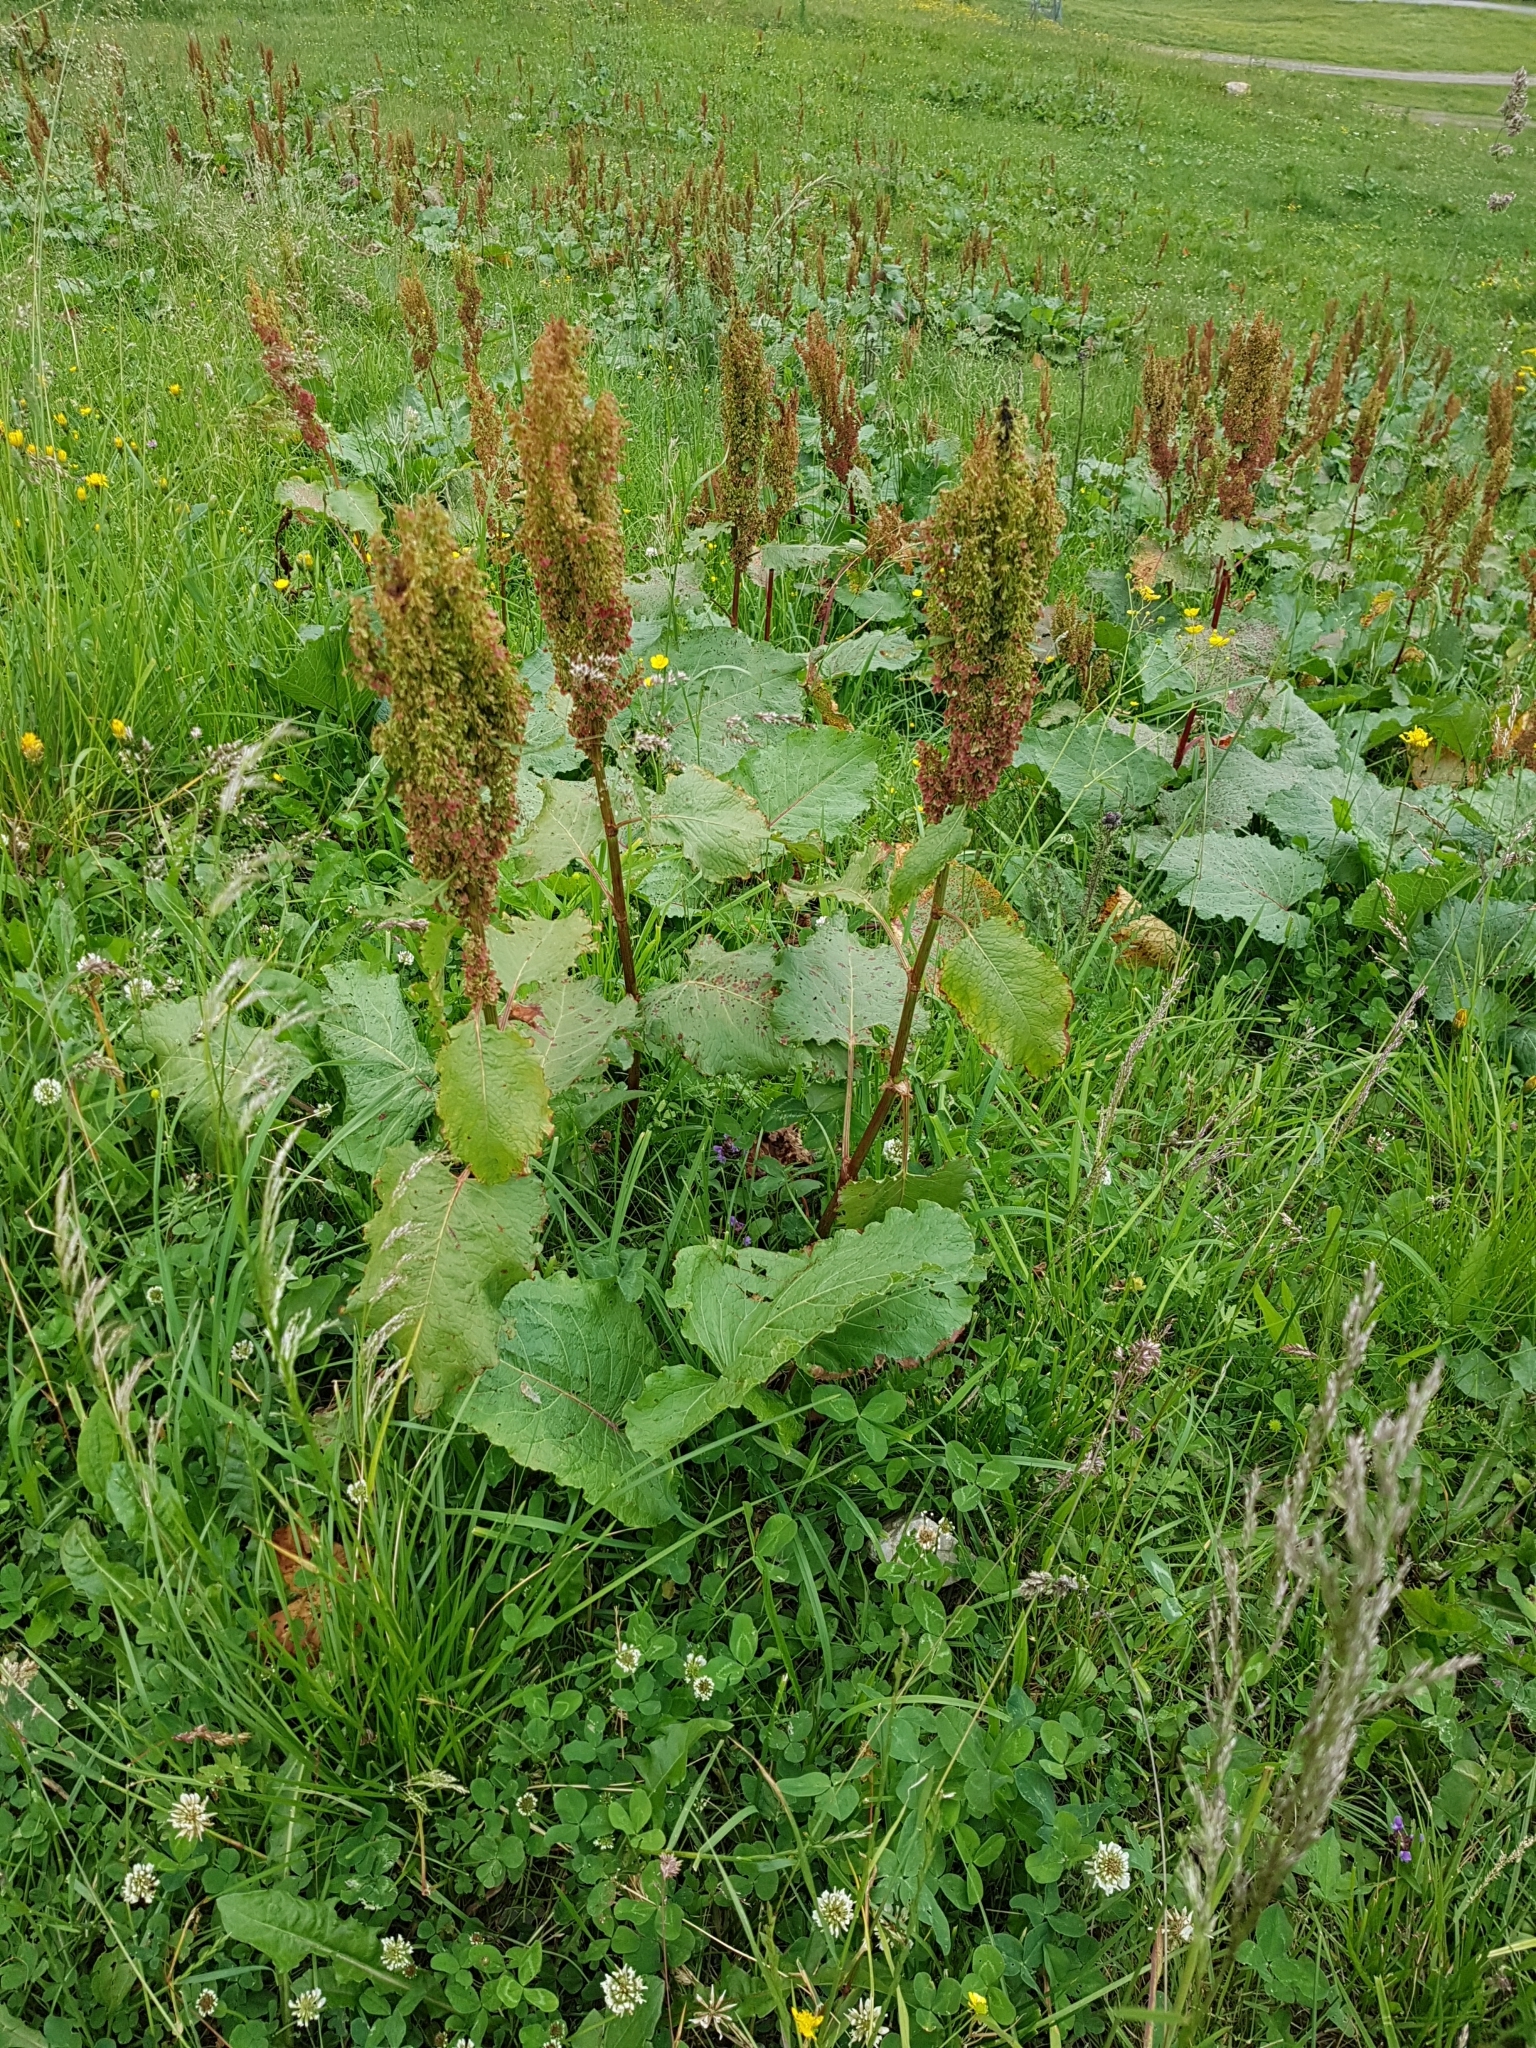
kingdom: Plantae
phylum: Tracheophyta
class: Magnoliopsida
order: Caryophyllales
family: Polygonaceae
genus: Rumex
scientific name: Rumex alpinus
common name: Alpine dock
